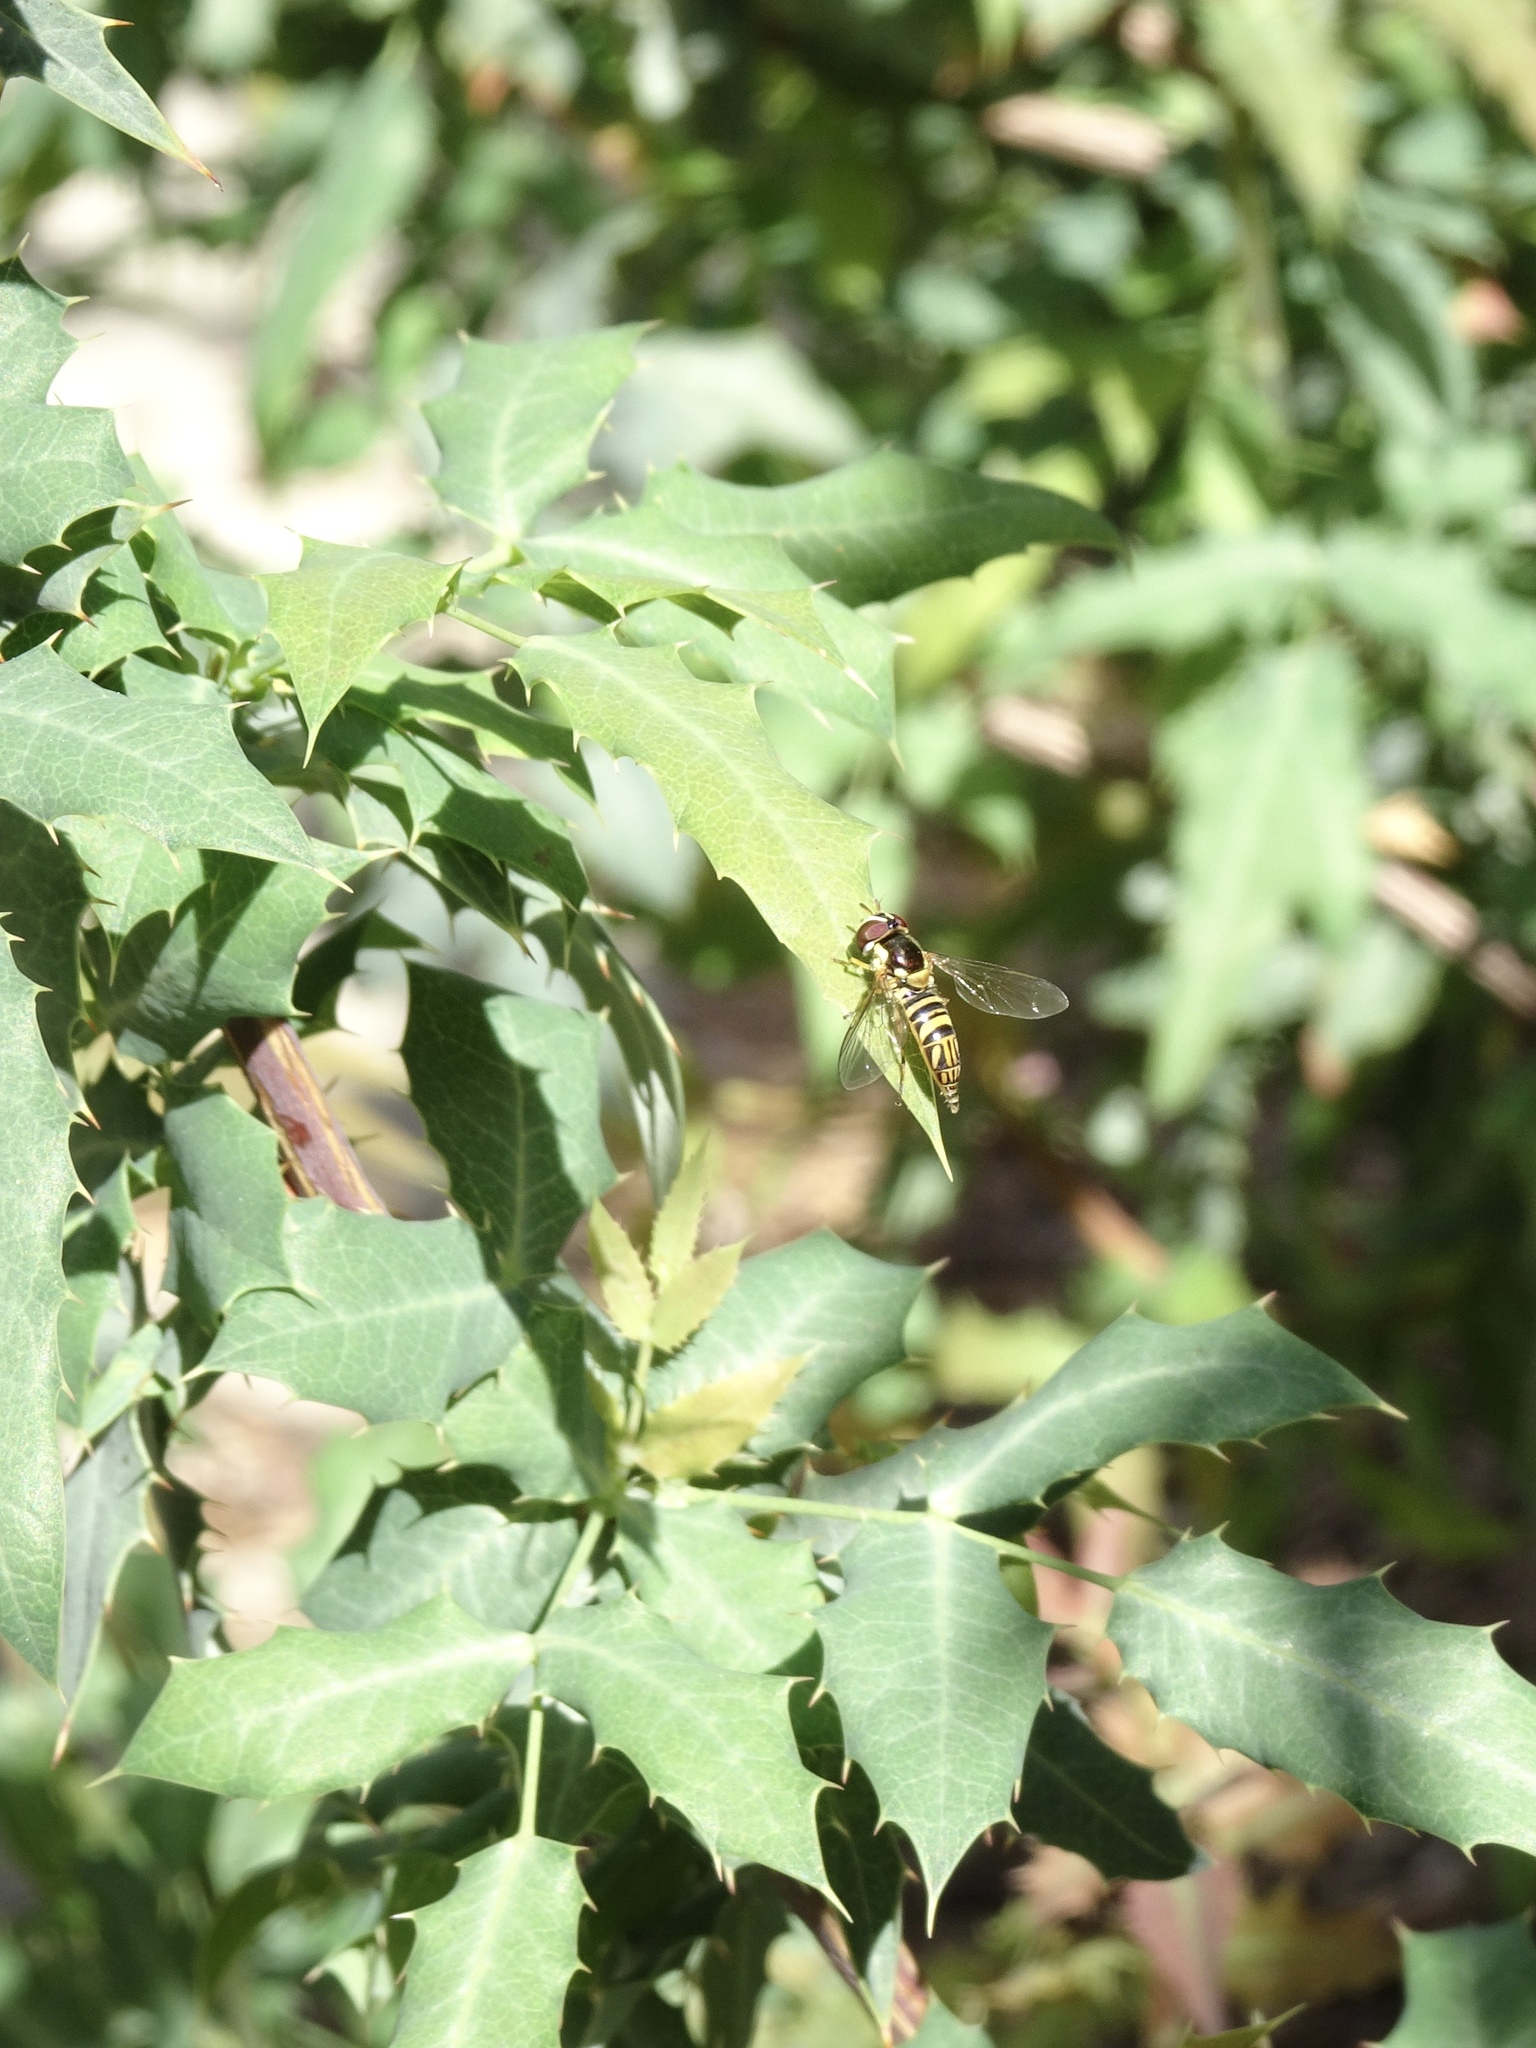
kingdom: Animalia
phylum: Arthropoda
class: Insecta
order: Diptera
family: Syrphidae
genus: Allograpta
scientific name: Allograpta obliqua
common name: Common oblique syrphid
